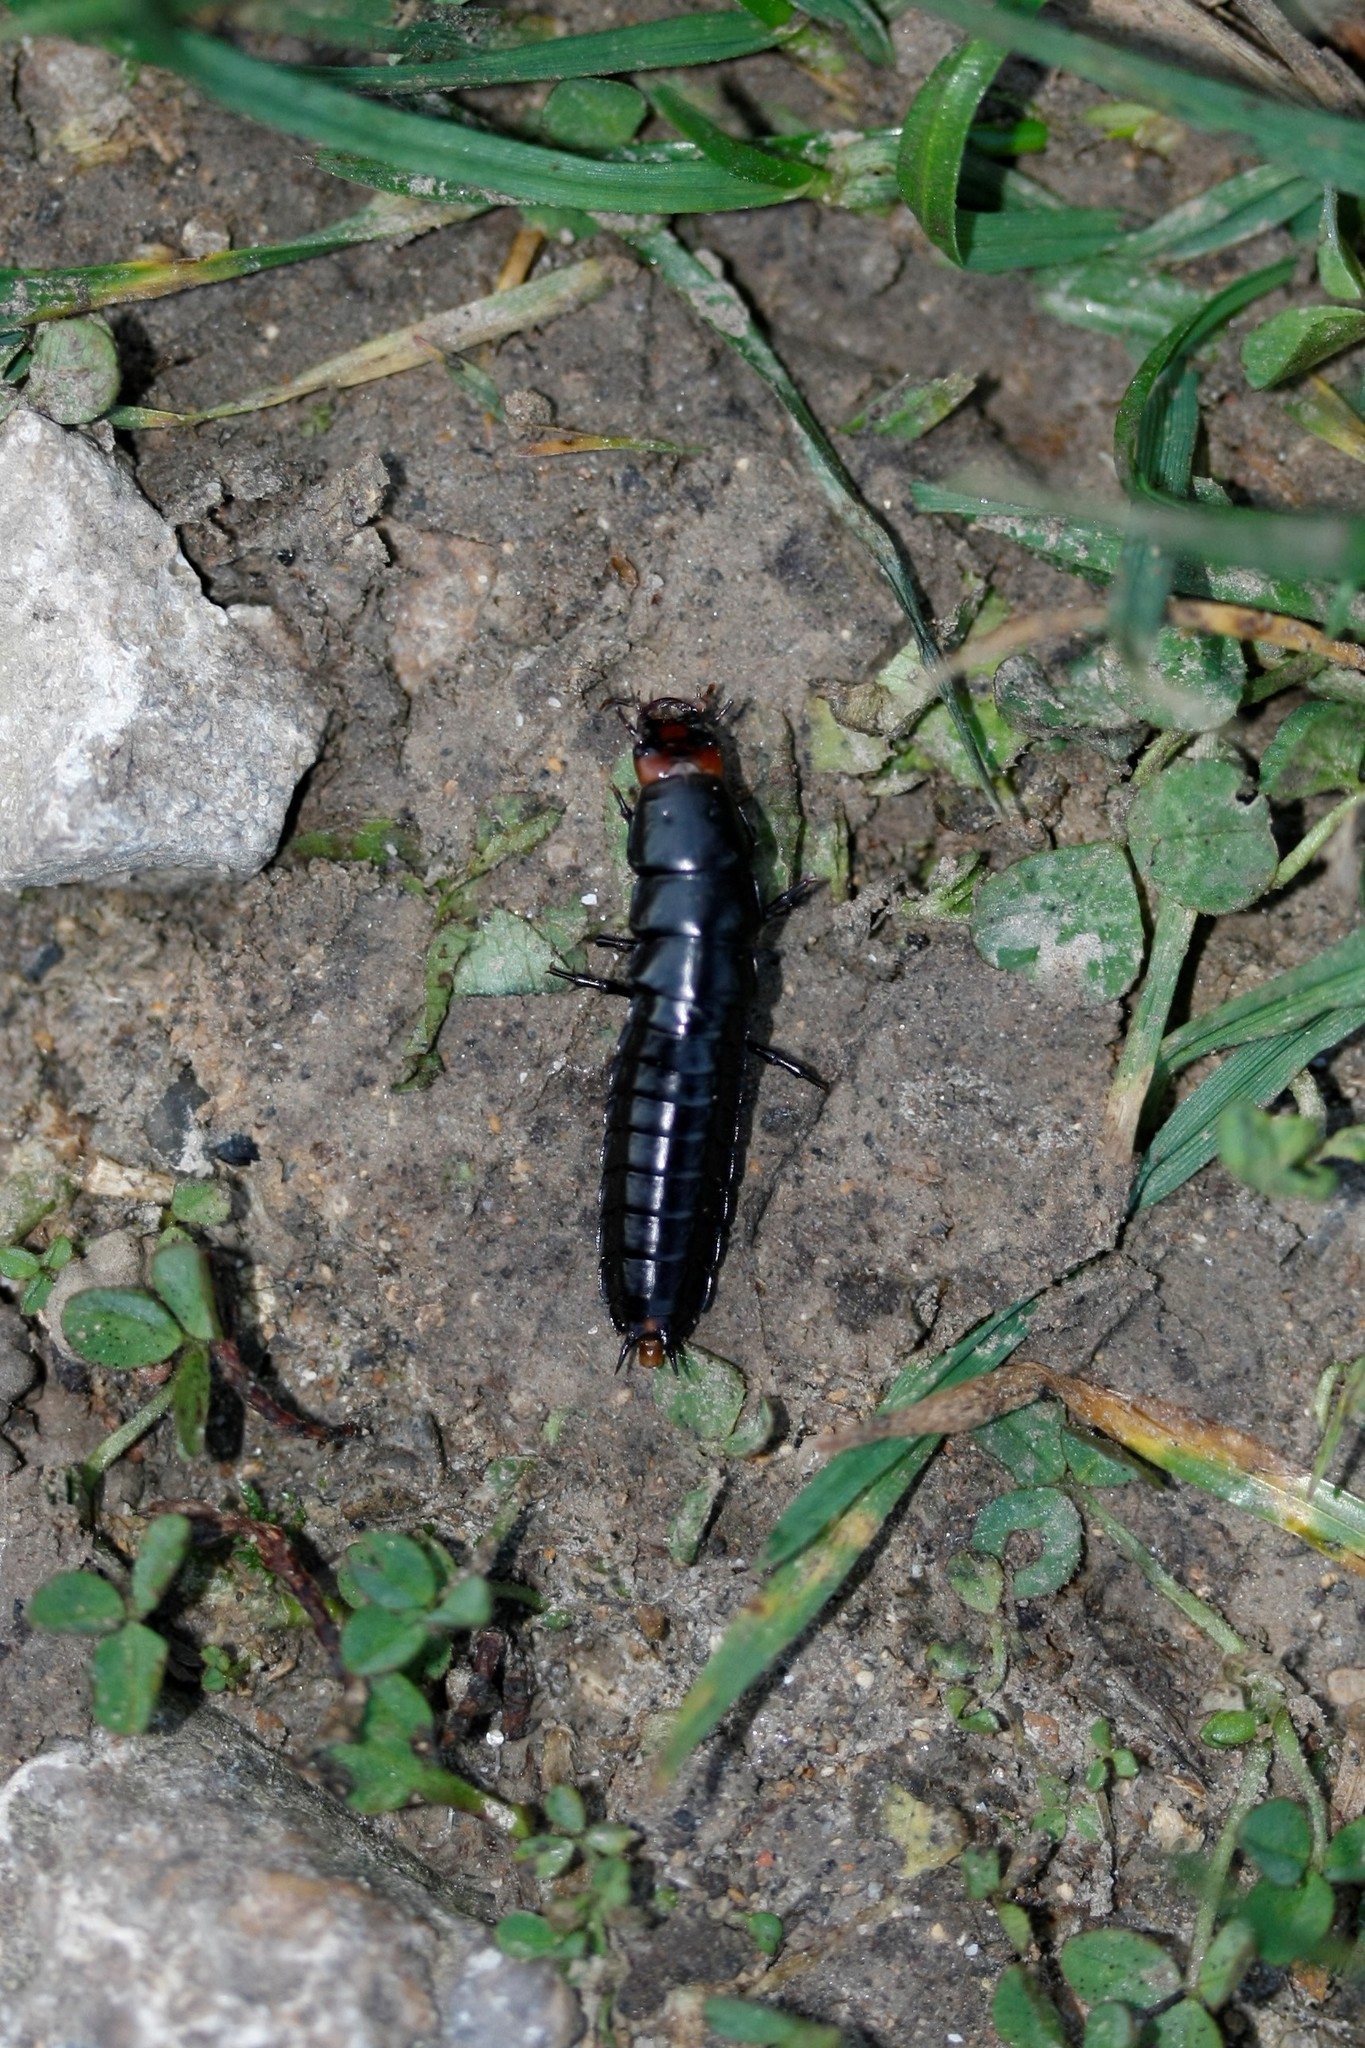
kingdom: Animalia
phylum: Arthropoda
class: Insecta
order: Coleoptera
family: Carabidae
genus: Carabus
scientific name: Carabus
